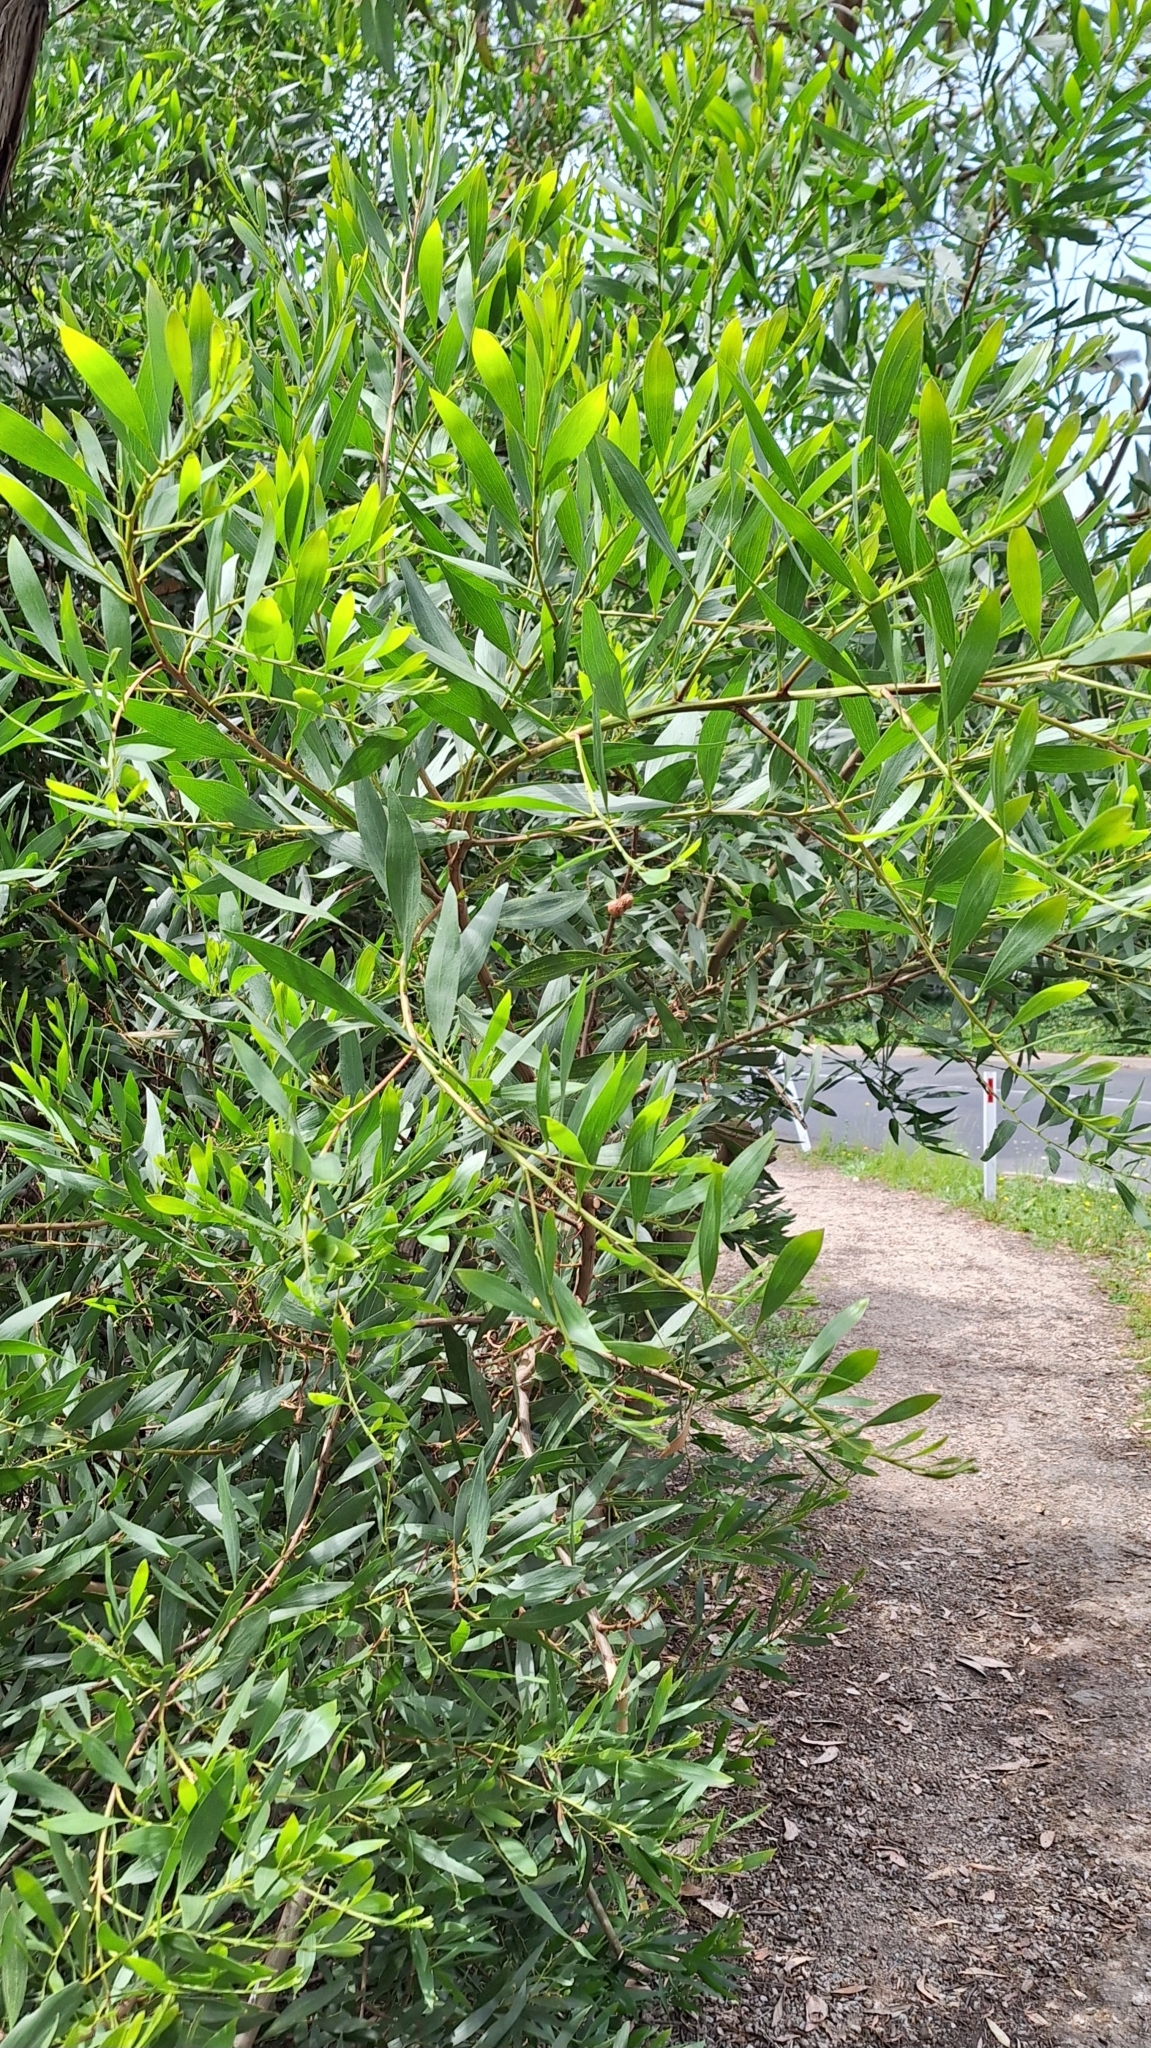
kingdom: Plantae
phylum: Tracheophyta
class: Magnoliopsida
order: Fabales
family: Fabaceae
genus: Acacia
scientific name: Acacia longifolia
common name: Sydney golden wattle
